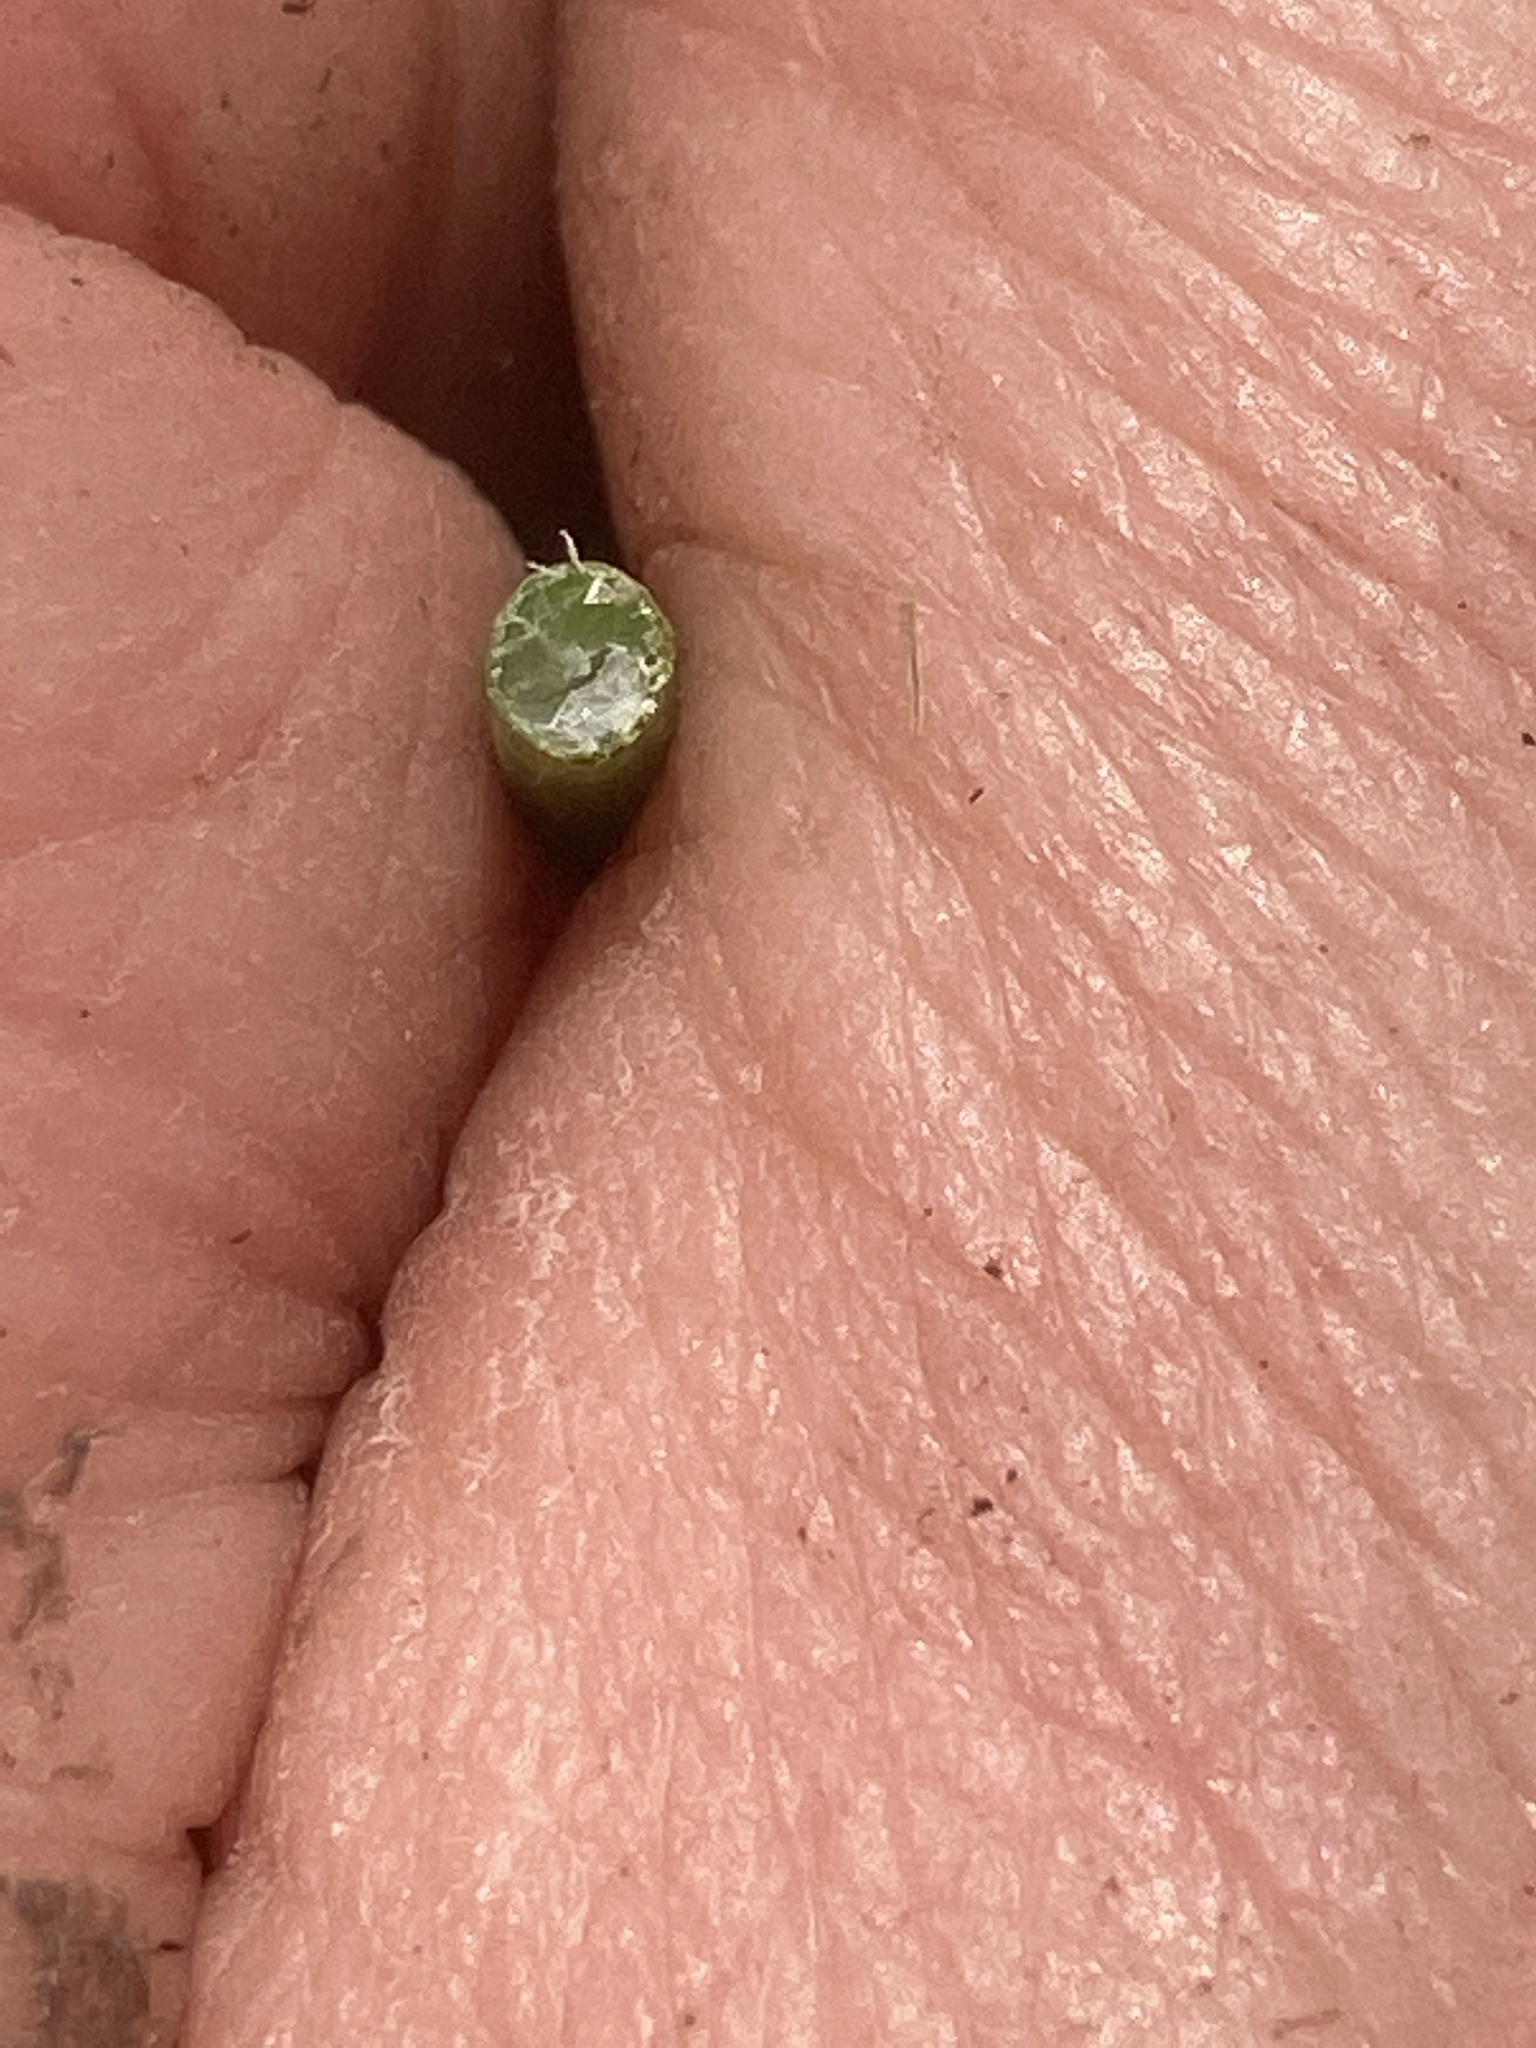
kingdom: Plantae
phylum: Tracheophyta
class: Liliopsida
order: Poales
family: Cyperaceae
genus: Schoenoplectus
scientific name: Schoenoplectus tabernaemontani
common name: Grey club-rush
